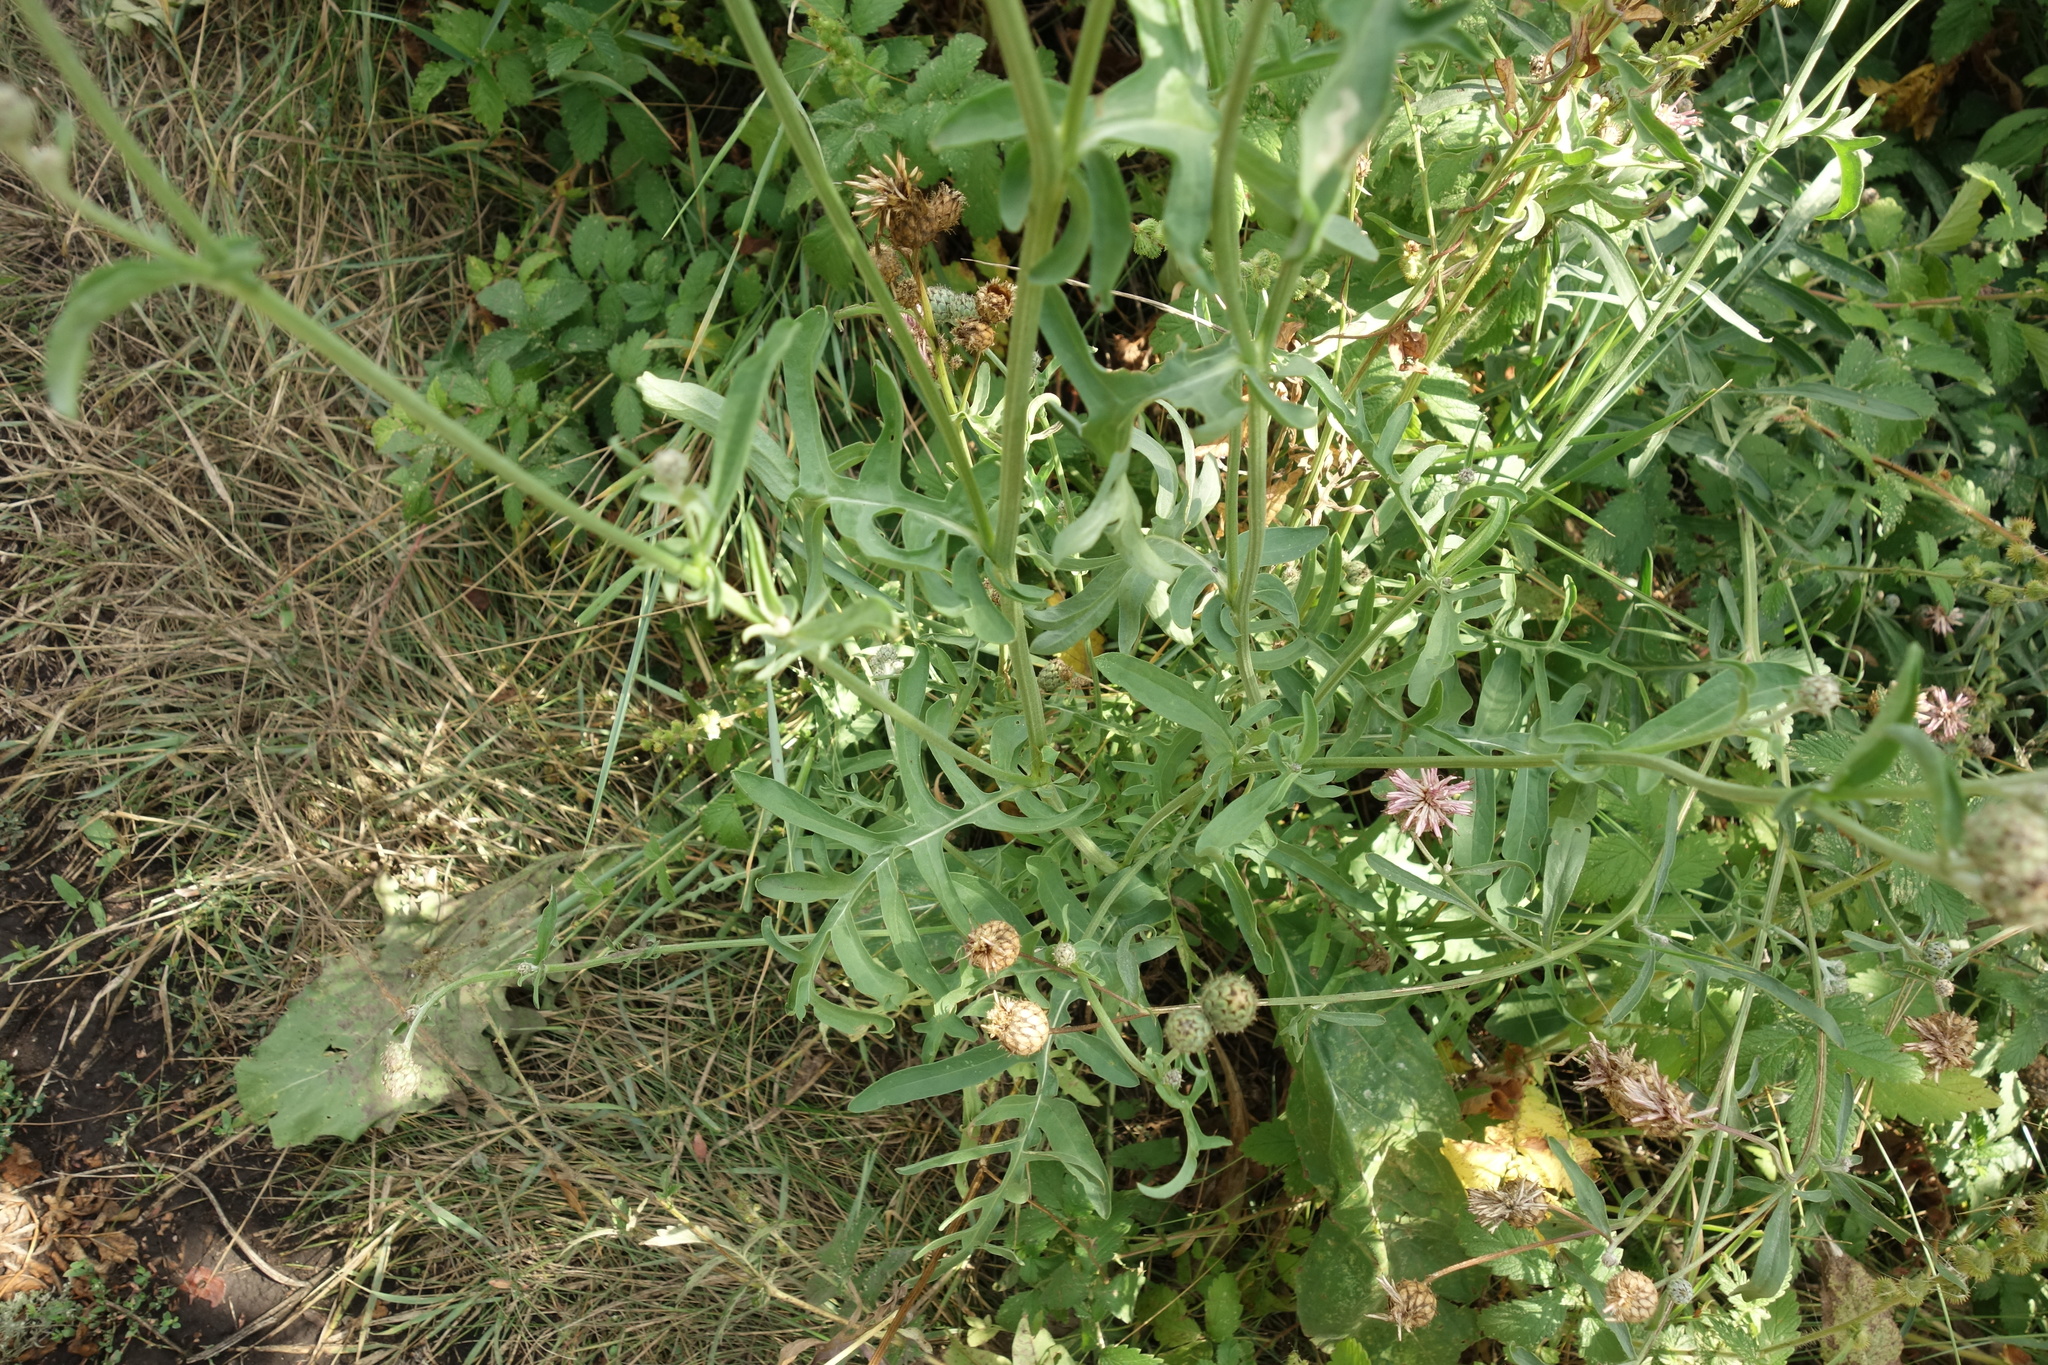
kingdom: Plantae
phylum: Tracheophyta
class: Magnoliopsida
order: Asterales
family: Asteraceae
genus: Centaurea
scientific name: Centaurea scabiosa
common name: Greater knapweed
